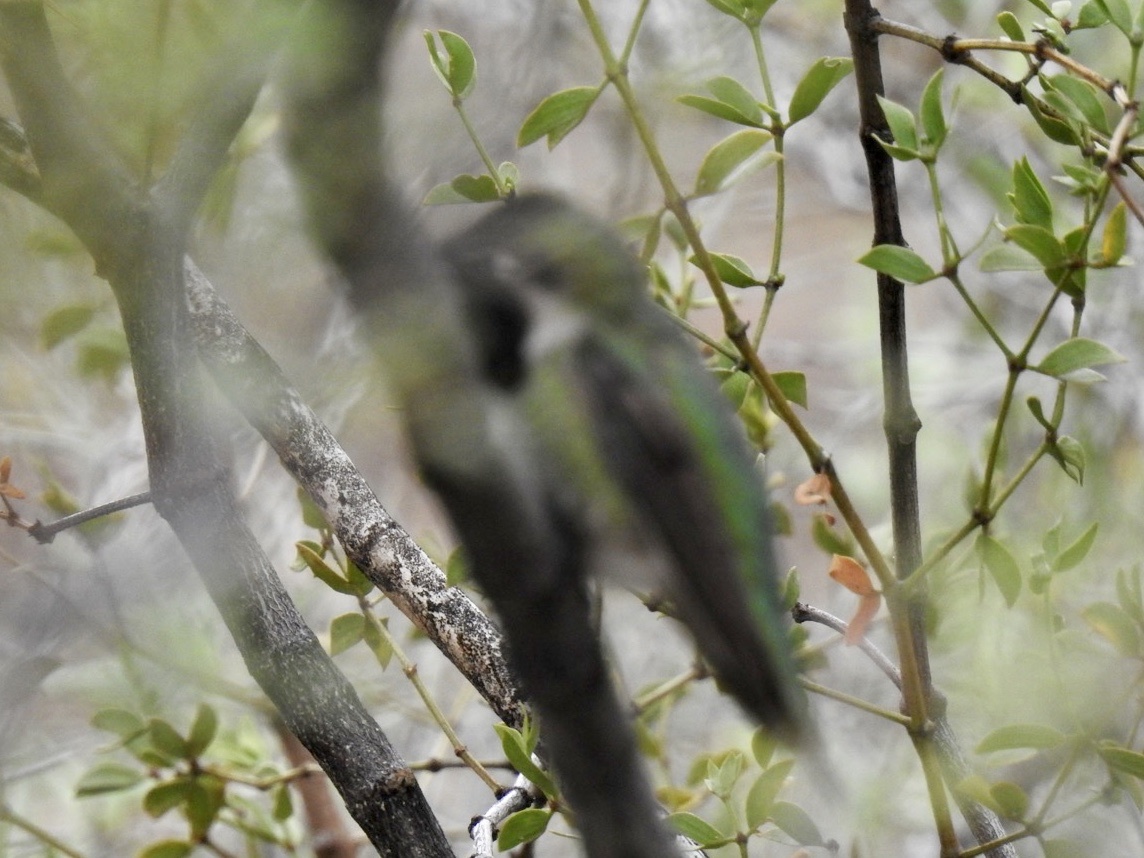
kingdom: Animalia
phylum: Chordata
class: Aves
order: Apodiformes
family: Trochilidae
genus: Calypte
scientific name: Calypte anna
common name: Anna's hummingbird
